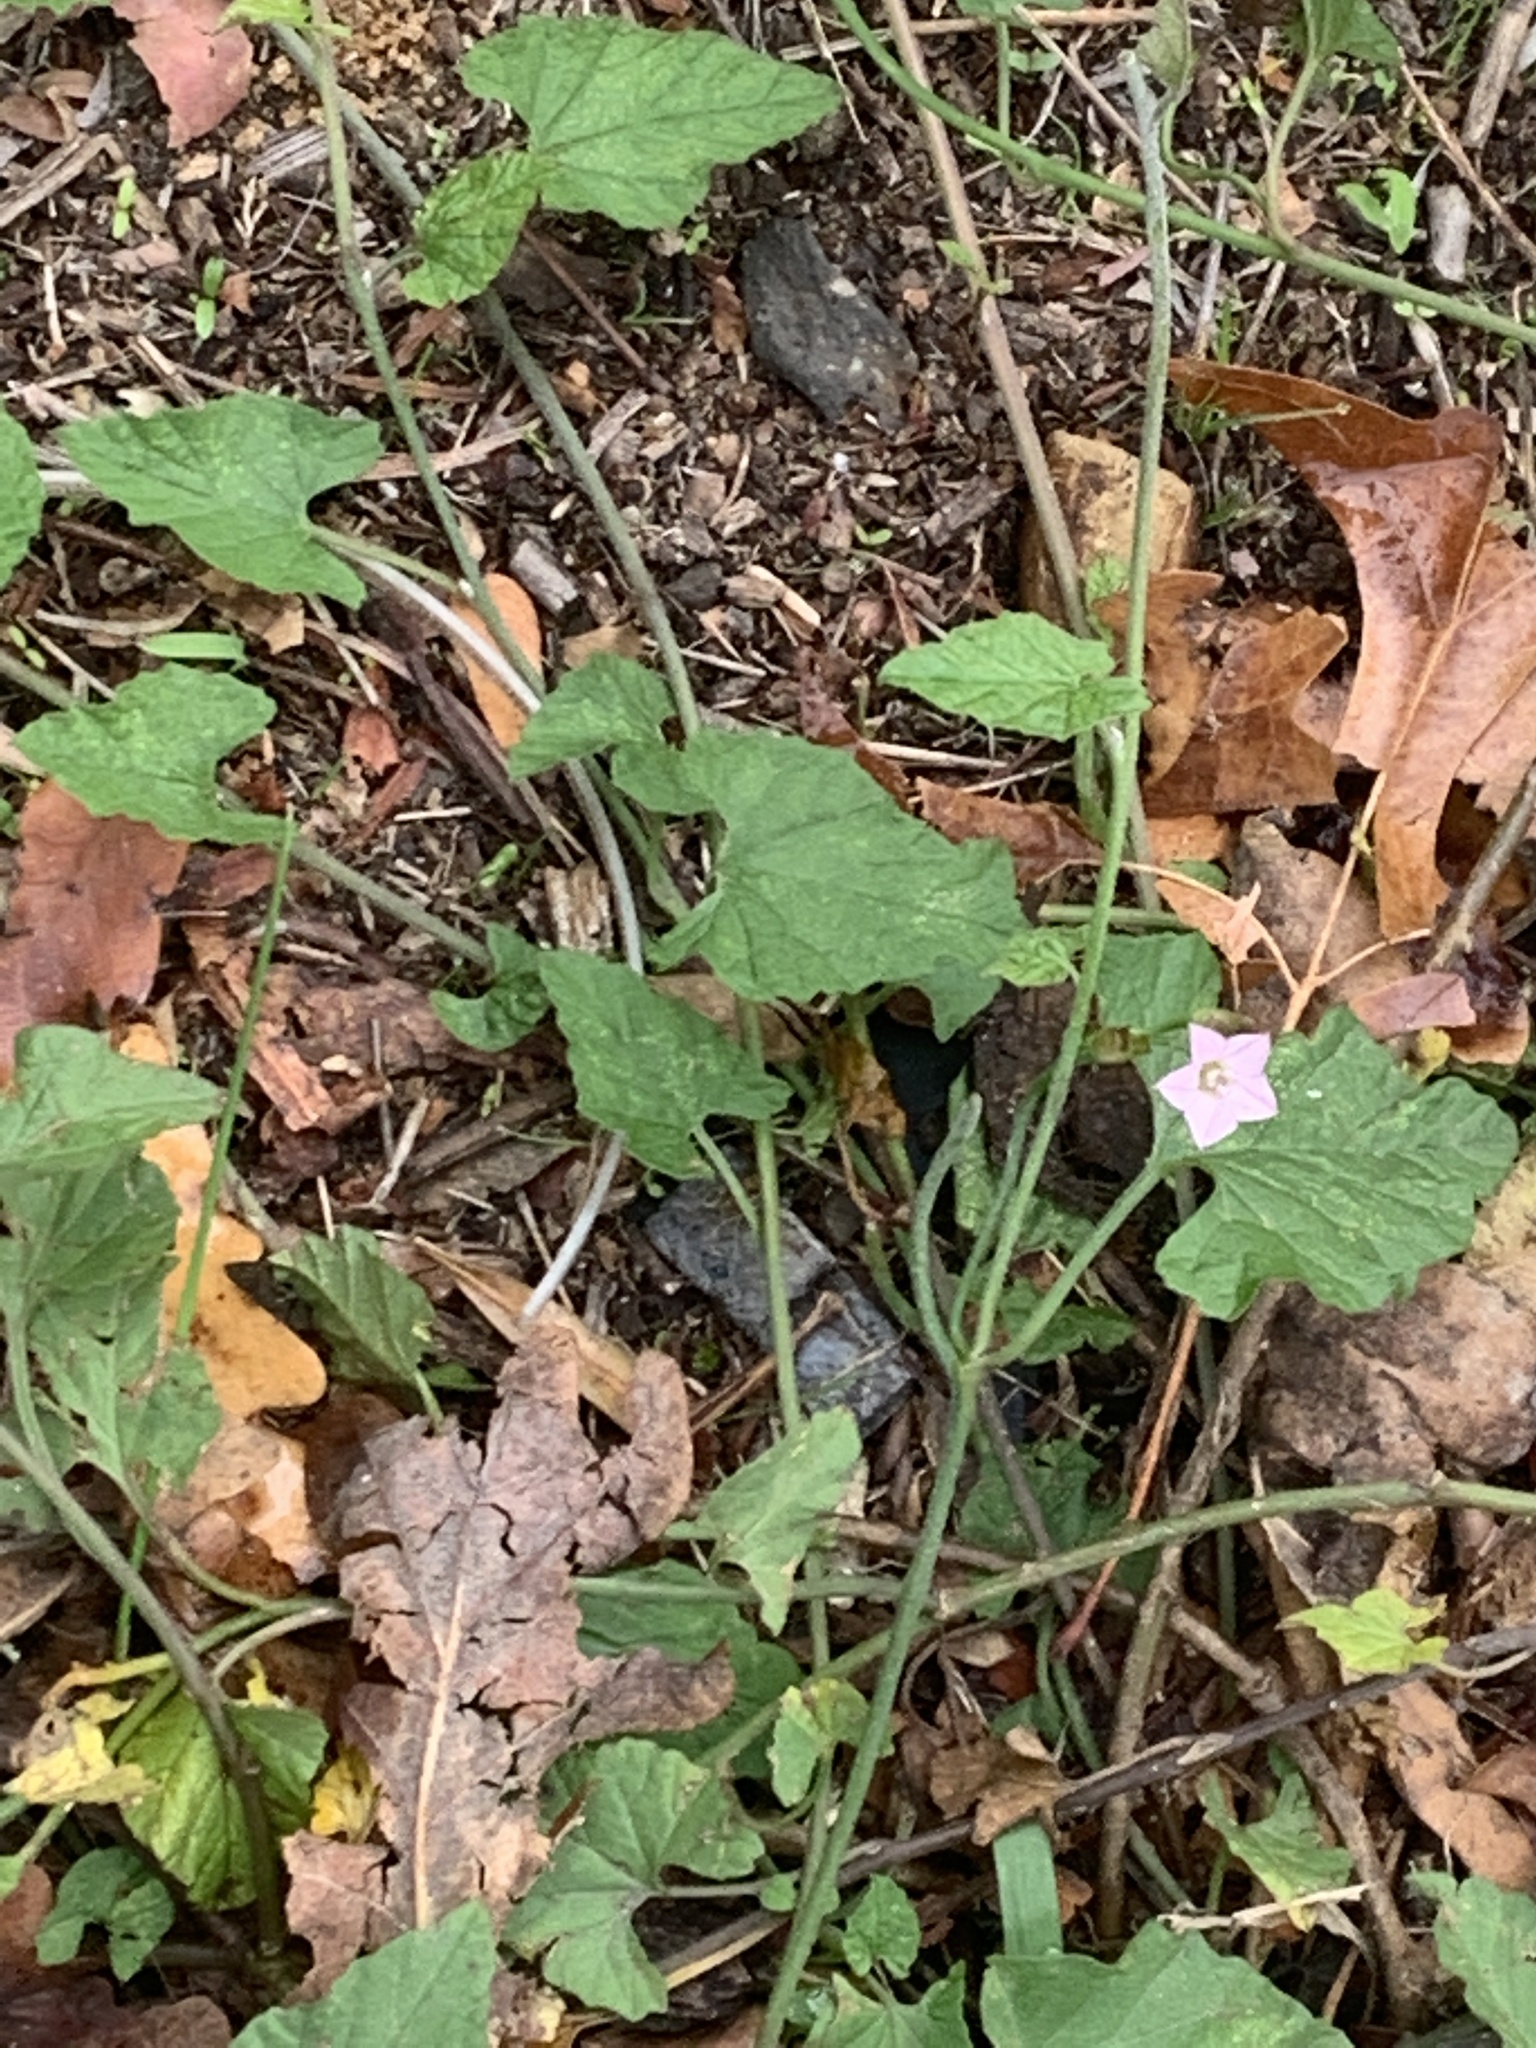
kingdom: Plantae
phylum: Tracheophyta
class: Magnoliopsida
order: Solanales
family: Convolvulaceae
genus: Convolvulus
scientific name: Convolvulus farinosus
